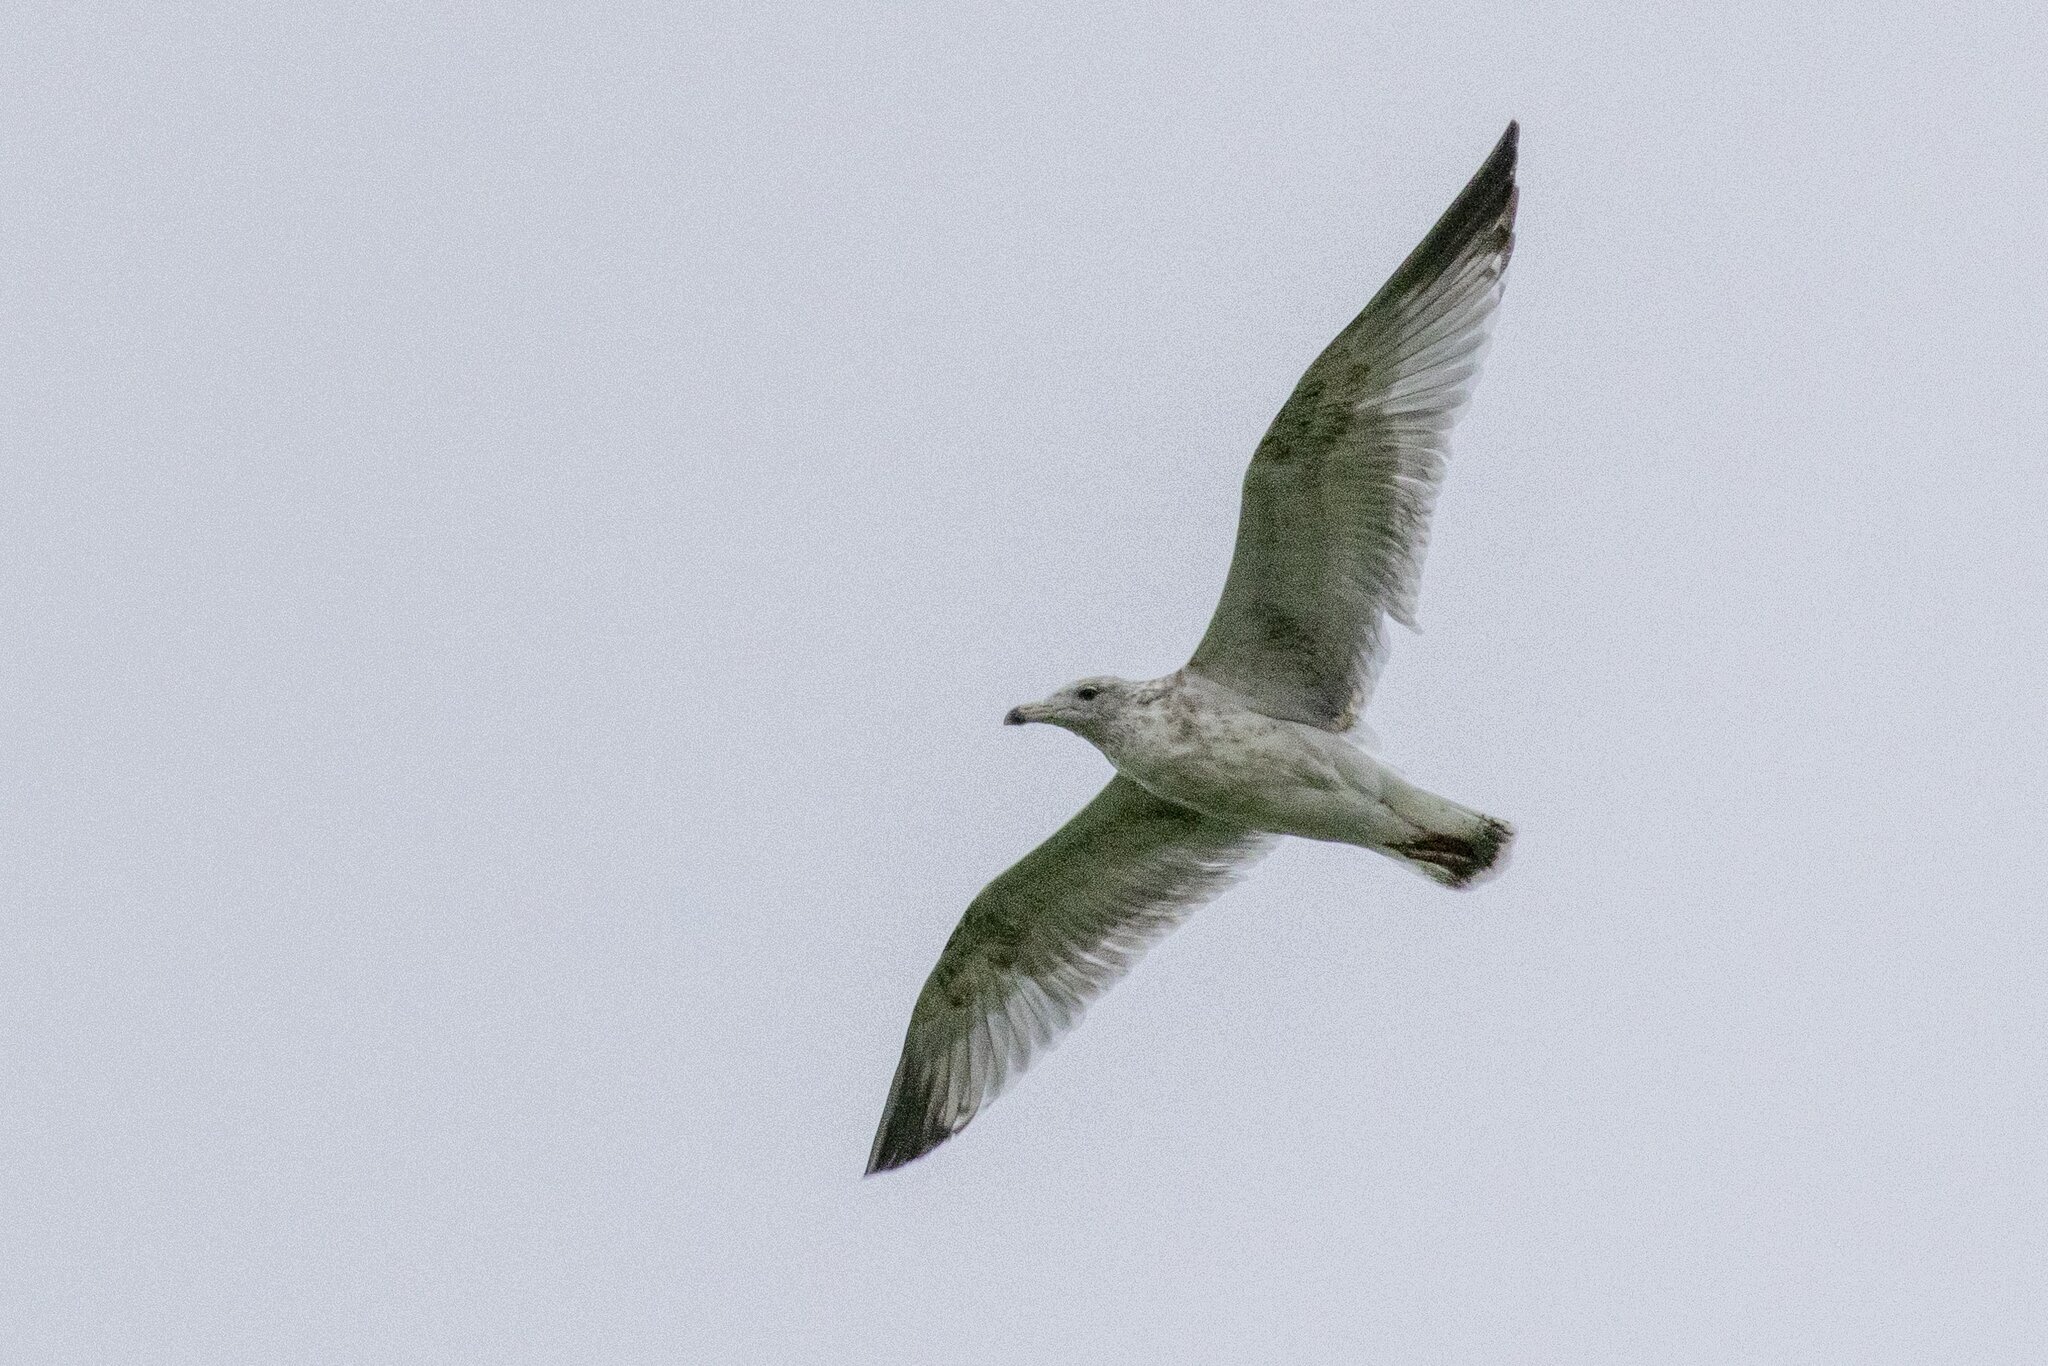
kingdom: Animalia
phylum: Chordata
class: Aves
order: Charadriiformes
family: Laridae
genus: Larus
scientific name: Larus argentatus
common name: Herring gull
